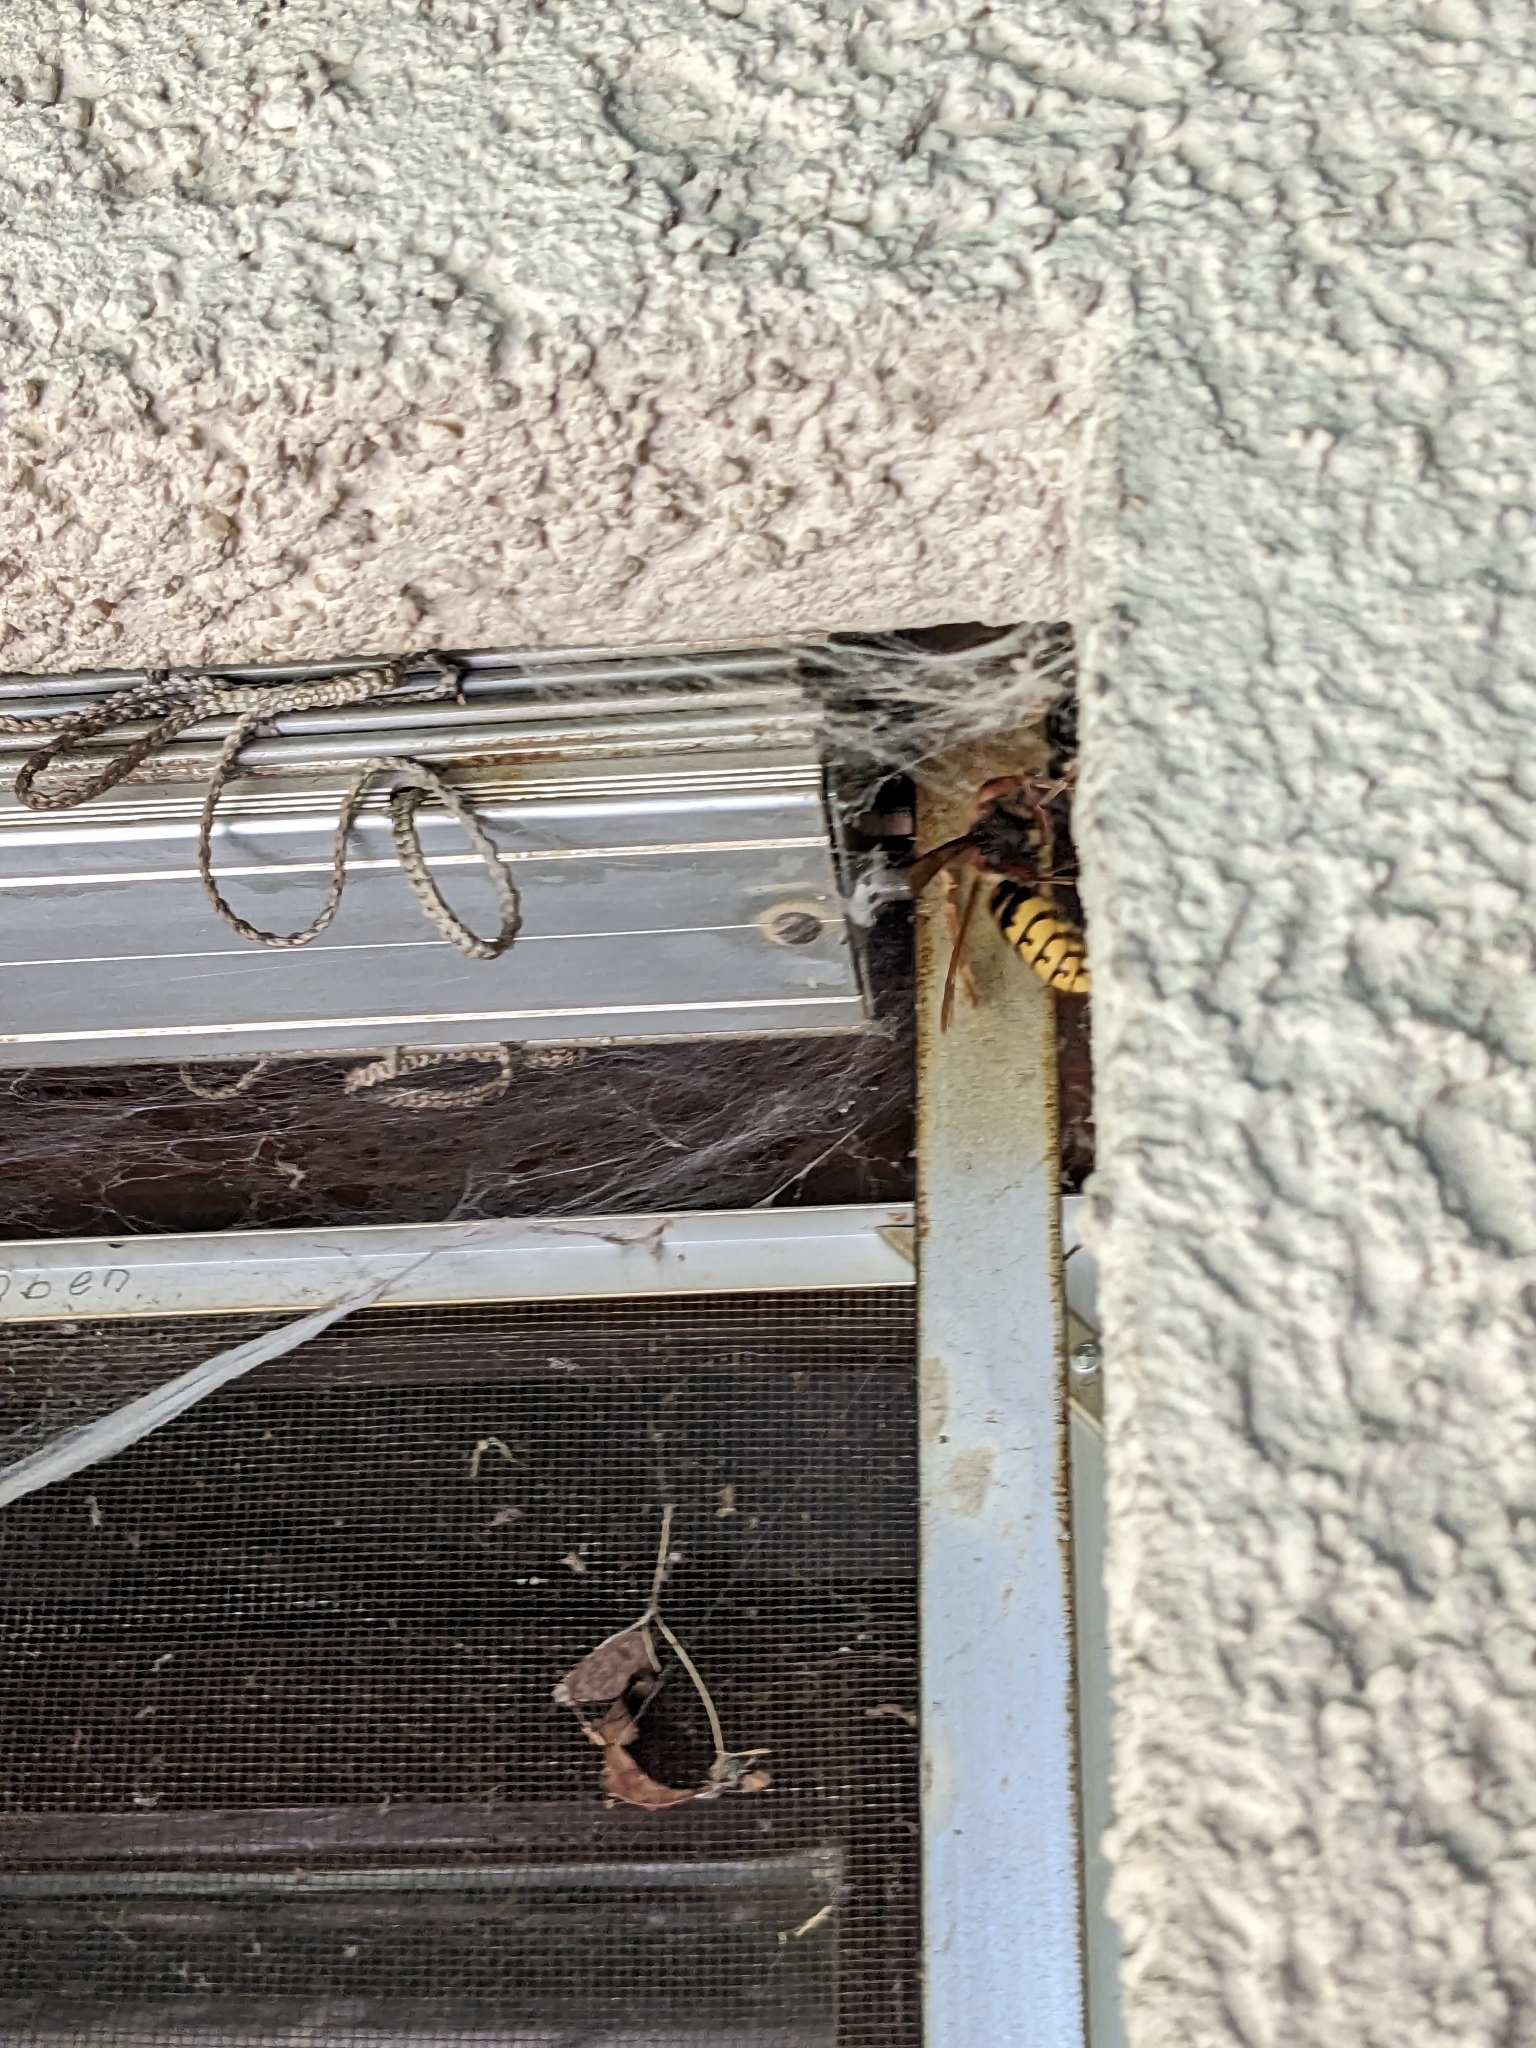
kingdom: Animalia
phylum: Arthropoda
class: Insecta
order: Hymenoptera
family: Vespidae
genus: Vespa
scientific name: Vespa crabro
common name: Hornet
